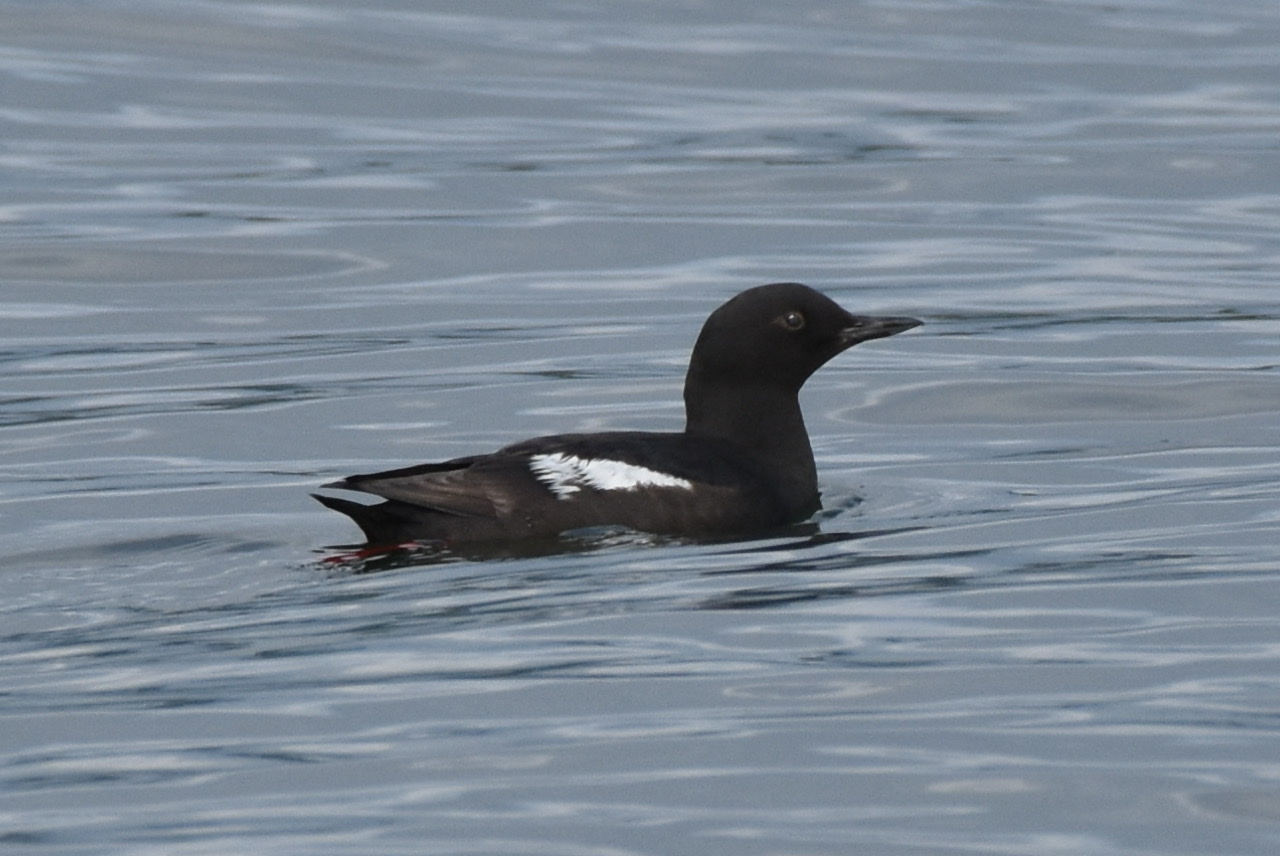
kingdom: Animalia
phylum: Chordata
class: Aves
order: Charadriiformes
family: Alcidae
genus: Cepphus
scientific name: Cepphus columba
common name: Pigeon guillemot
